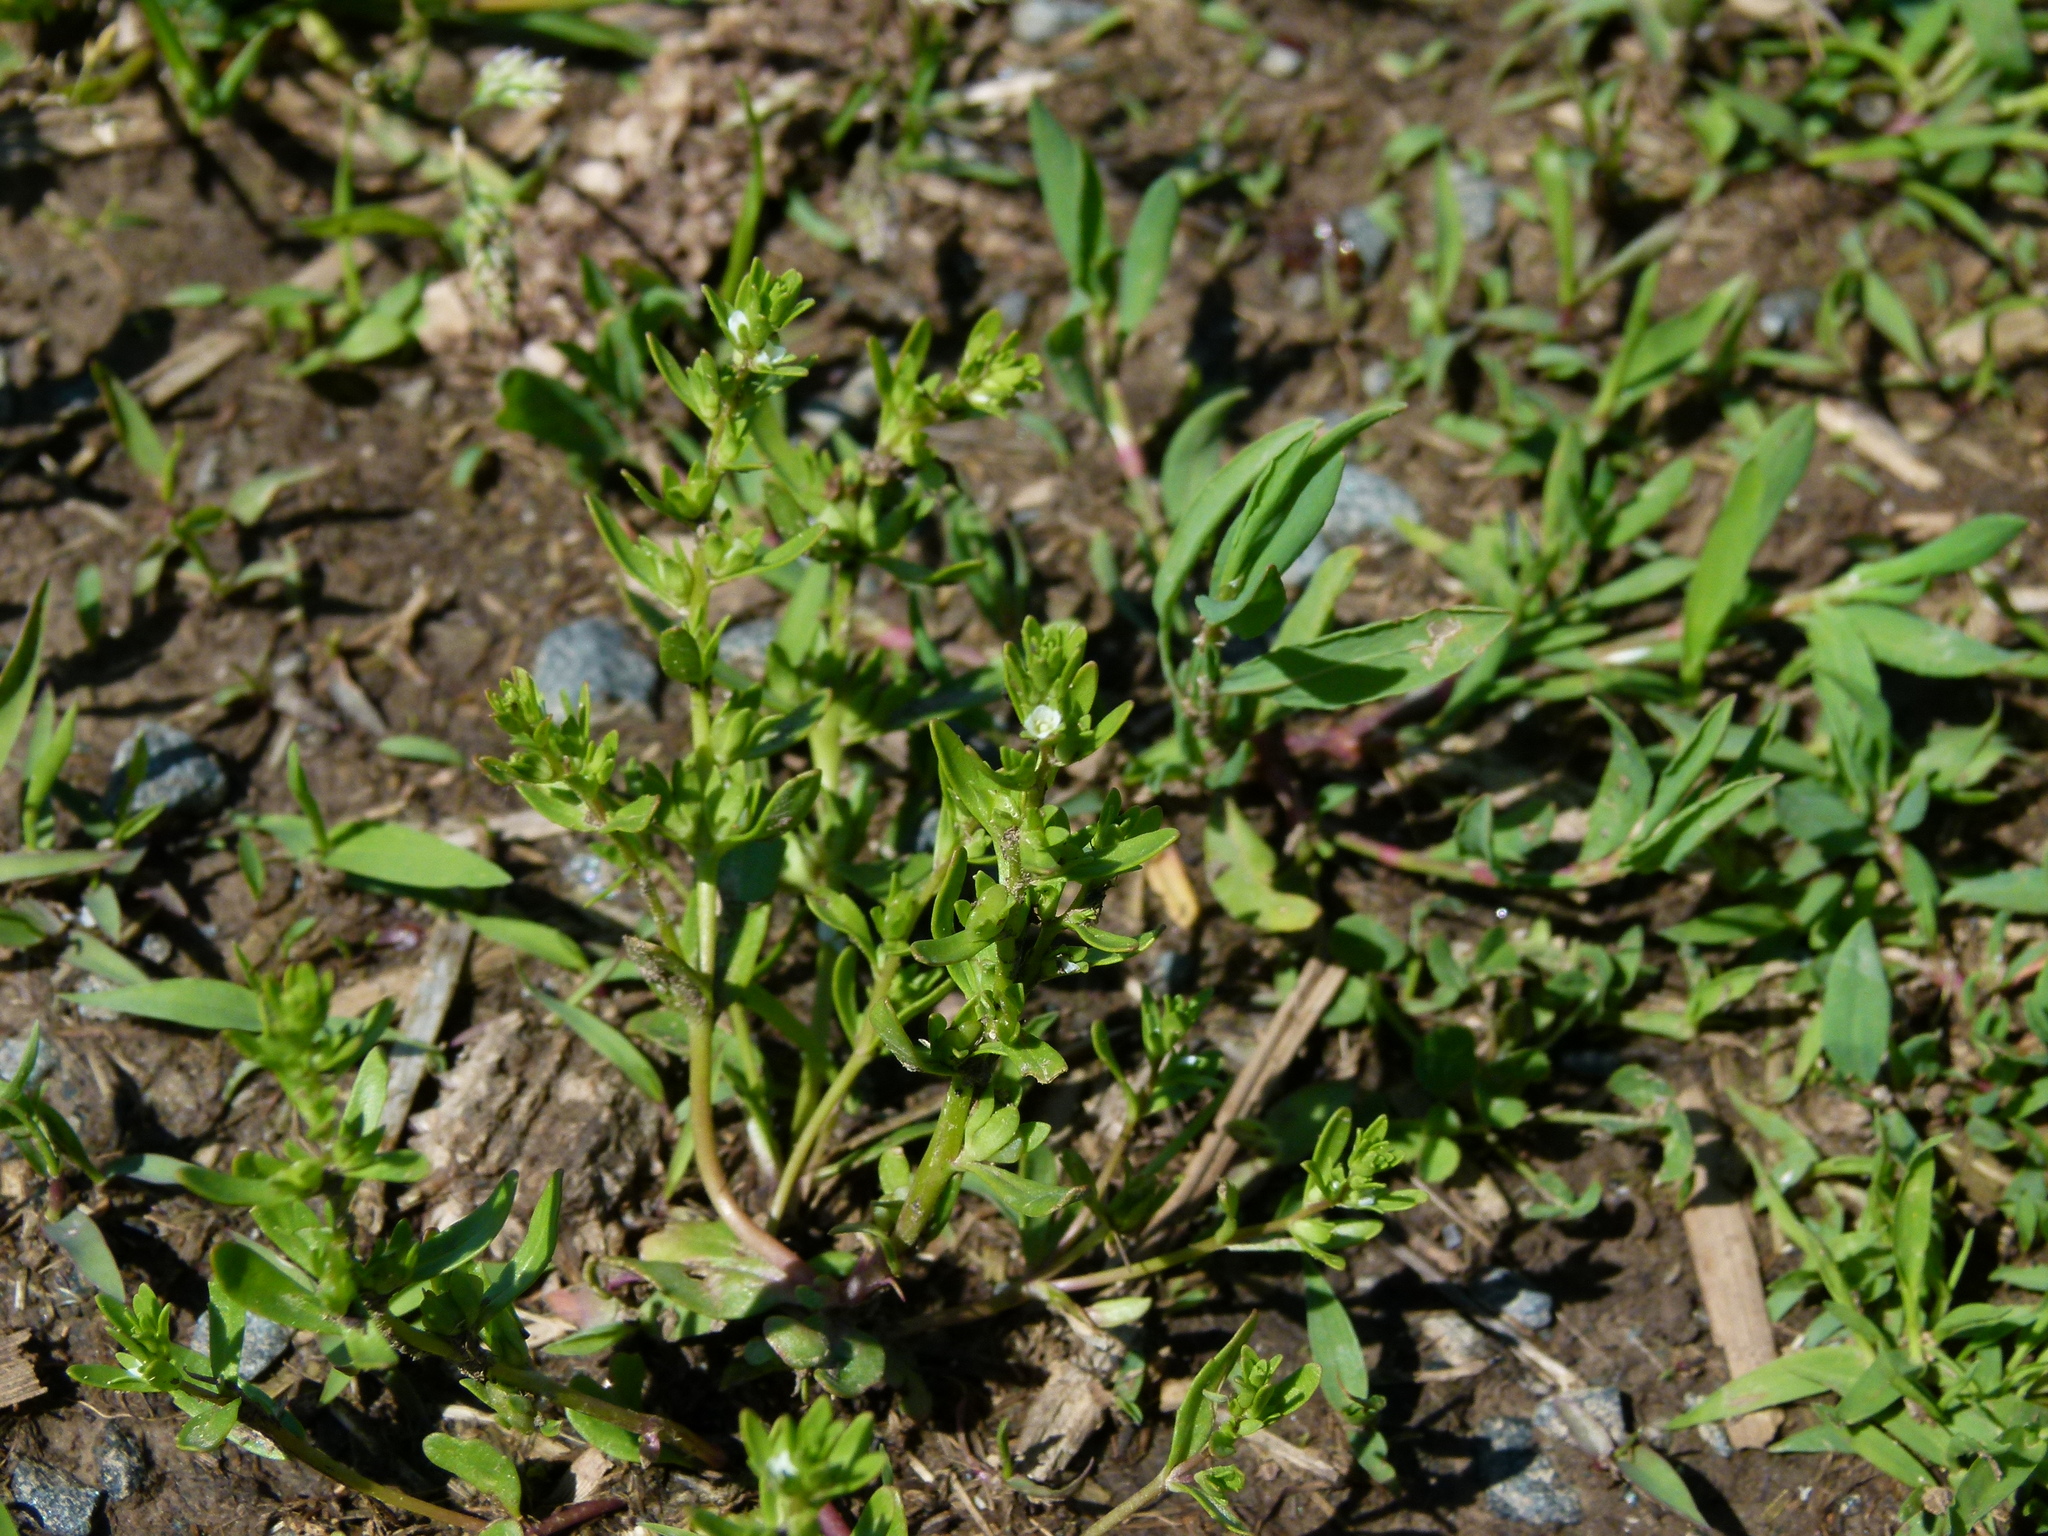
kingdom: Plantae
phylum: Tracheophyta
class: Magnoliopsida
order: Lamiales
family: Plantaginaceae
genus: Veronica
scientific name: Veronica peregrina
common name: Neckweed
